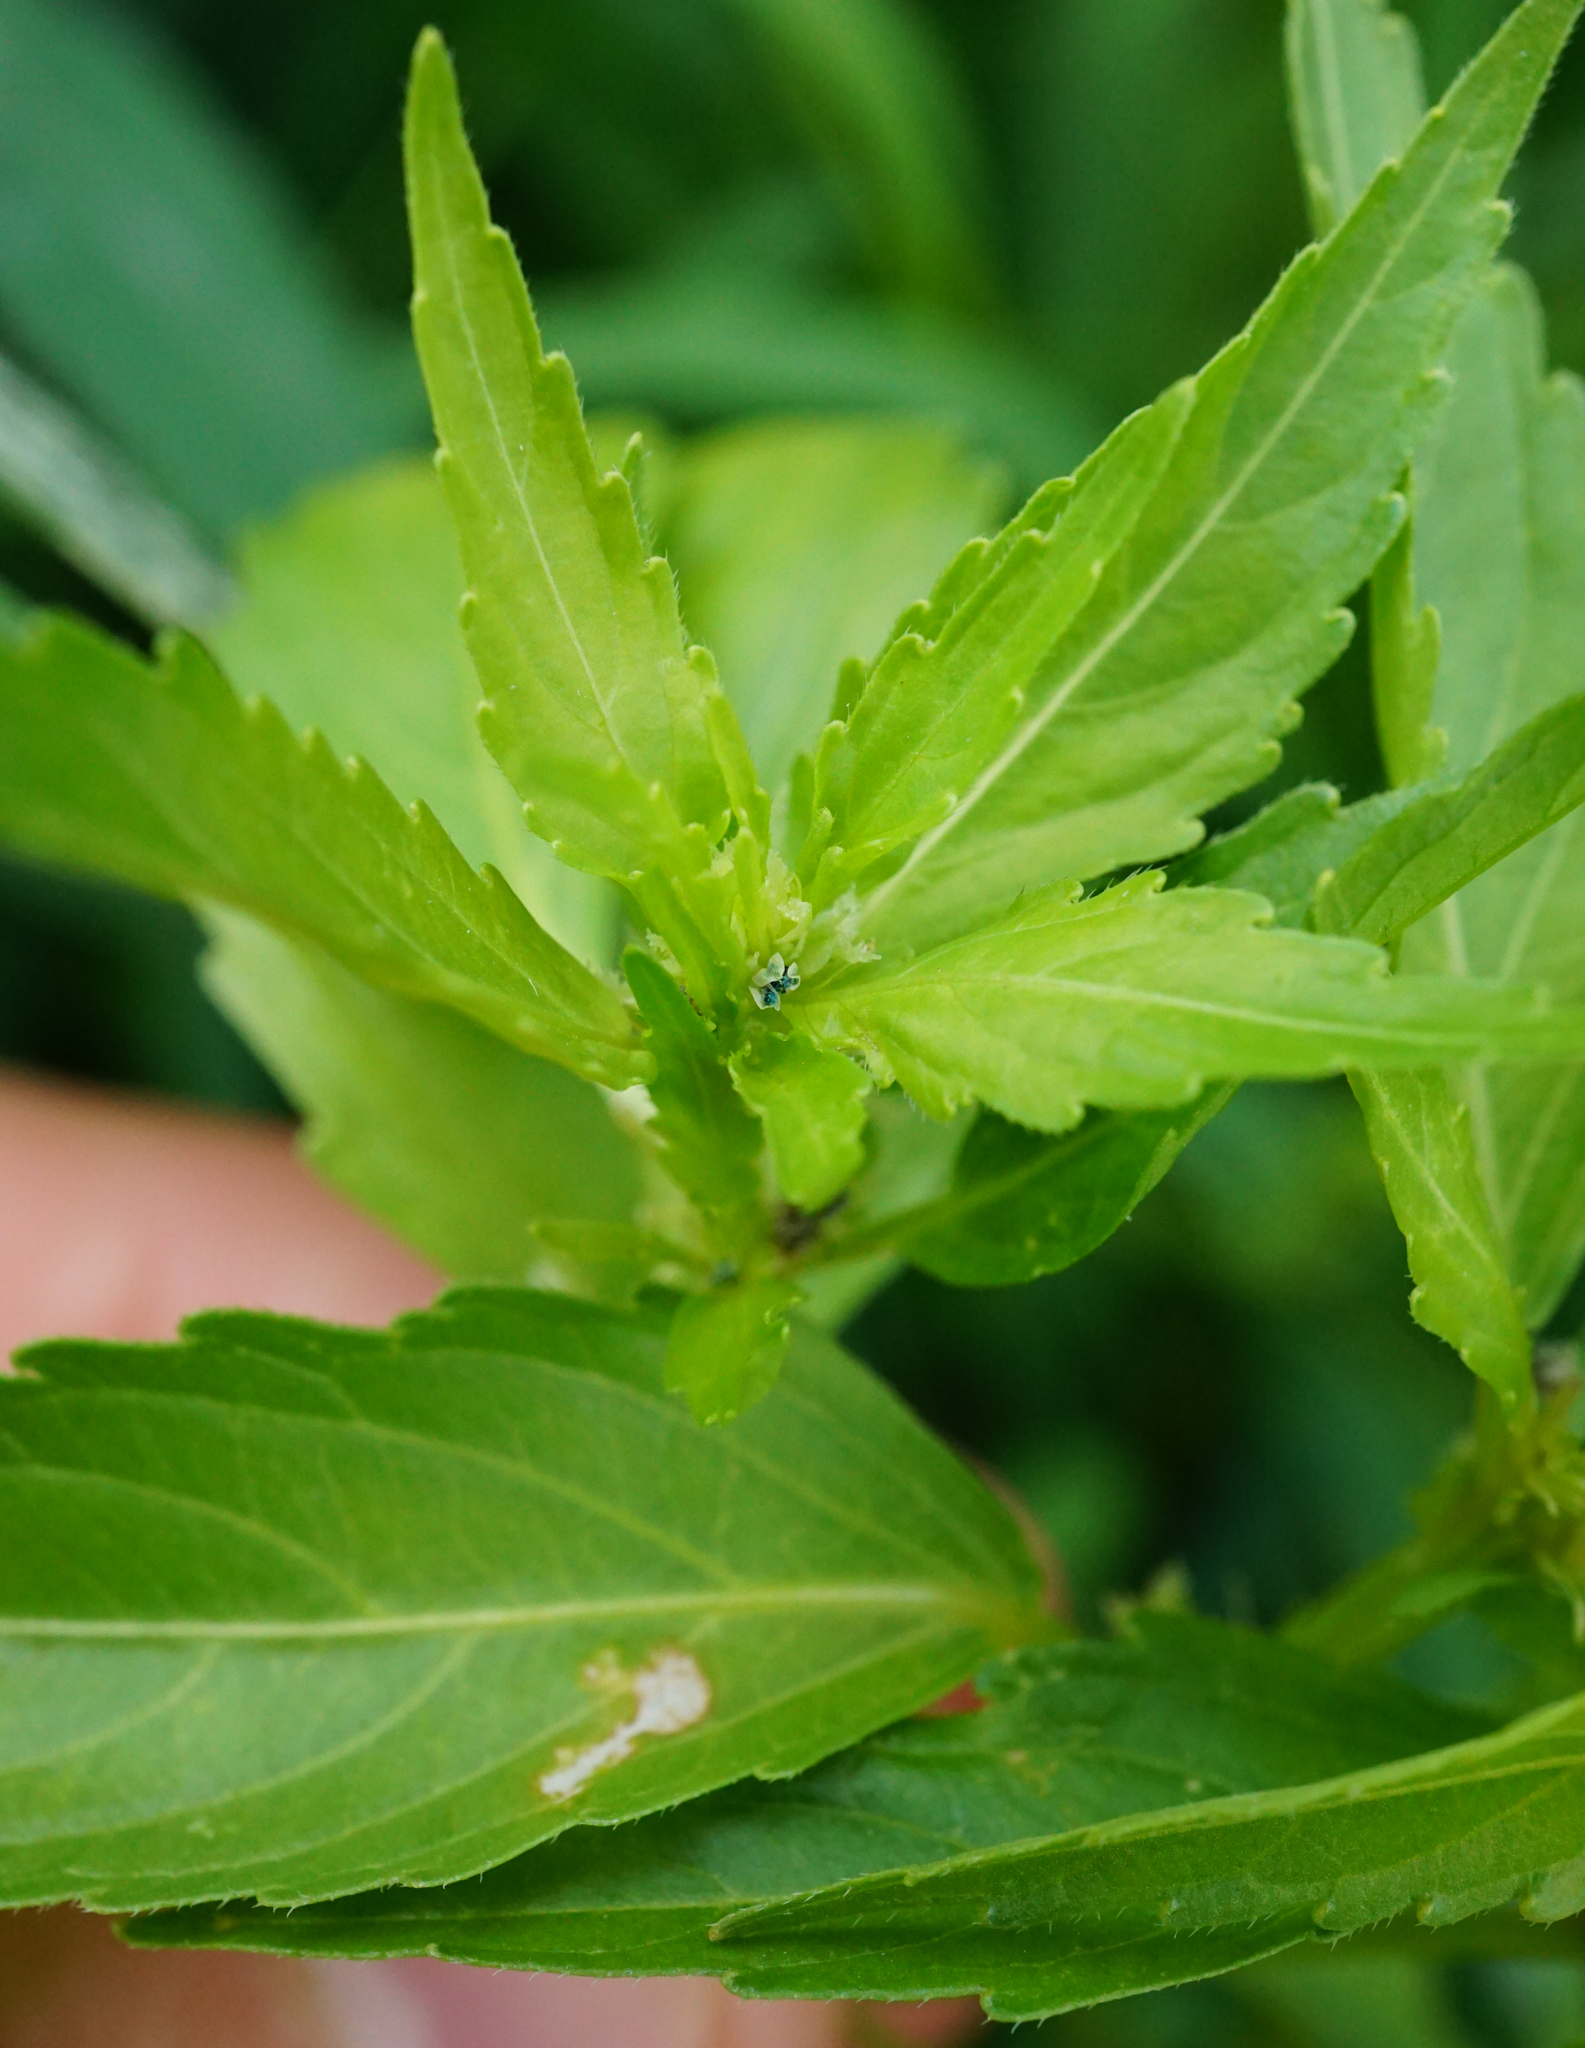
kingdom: Plantae
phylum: Tracheophyta
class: Magnoliopsida
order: Malpighiales
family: Euphorbiaceae
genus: Mercurialis
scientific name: Mercurialis annua
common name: Annual mercury
